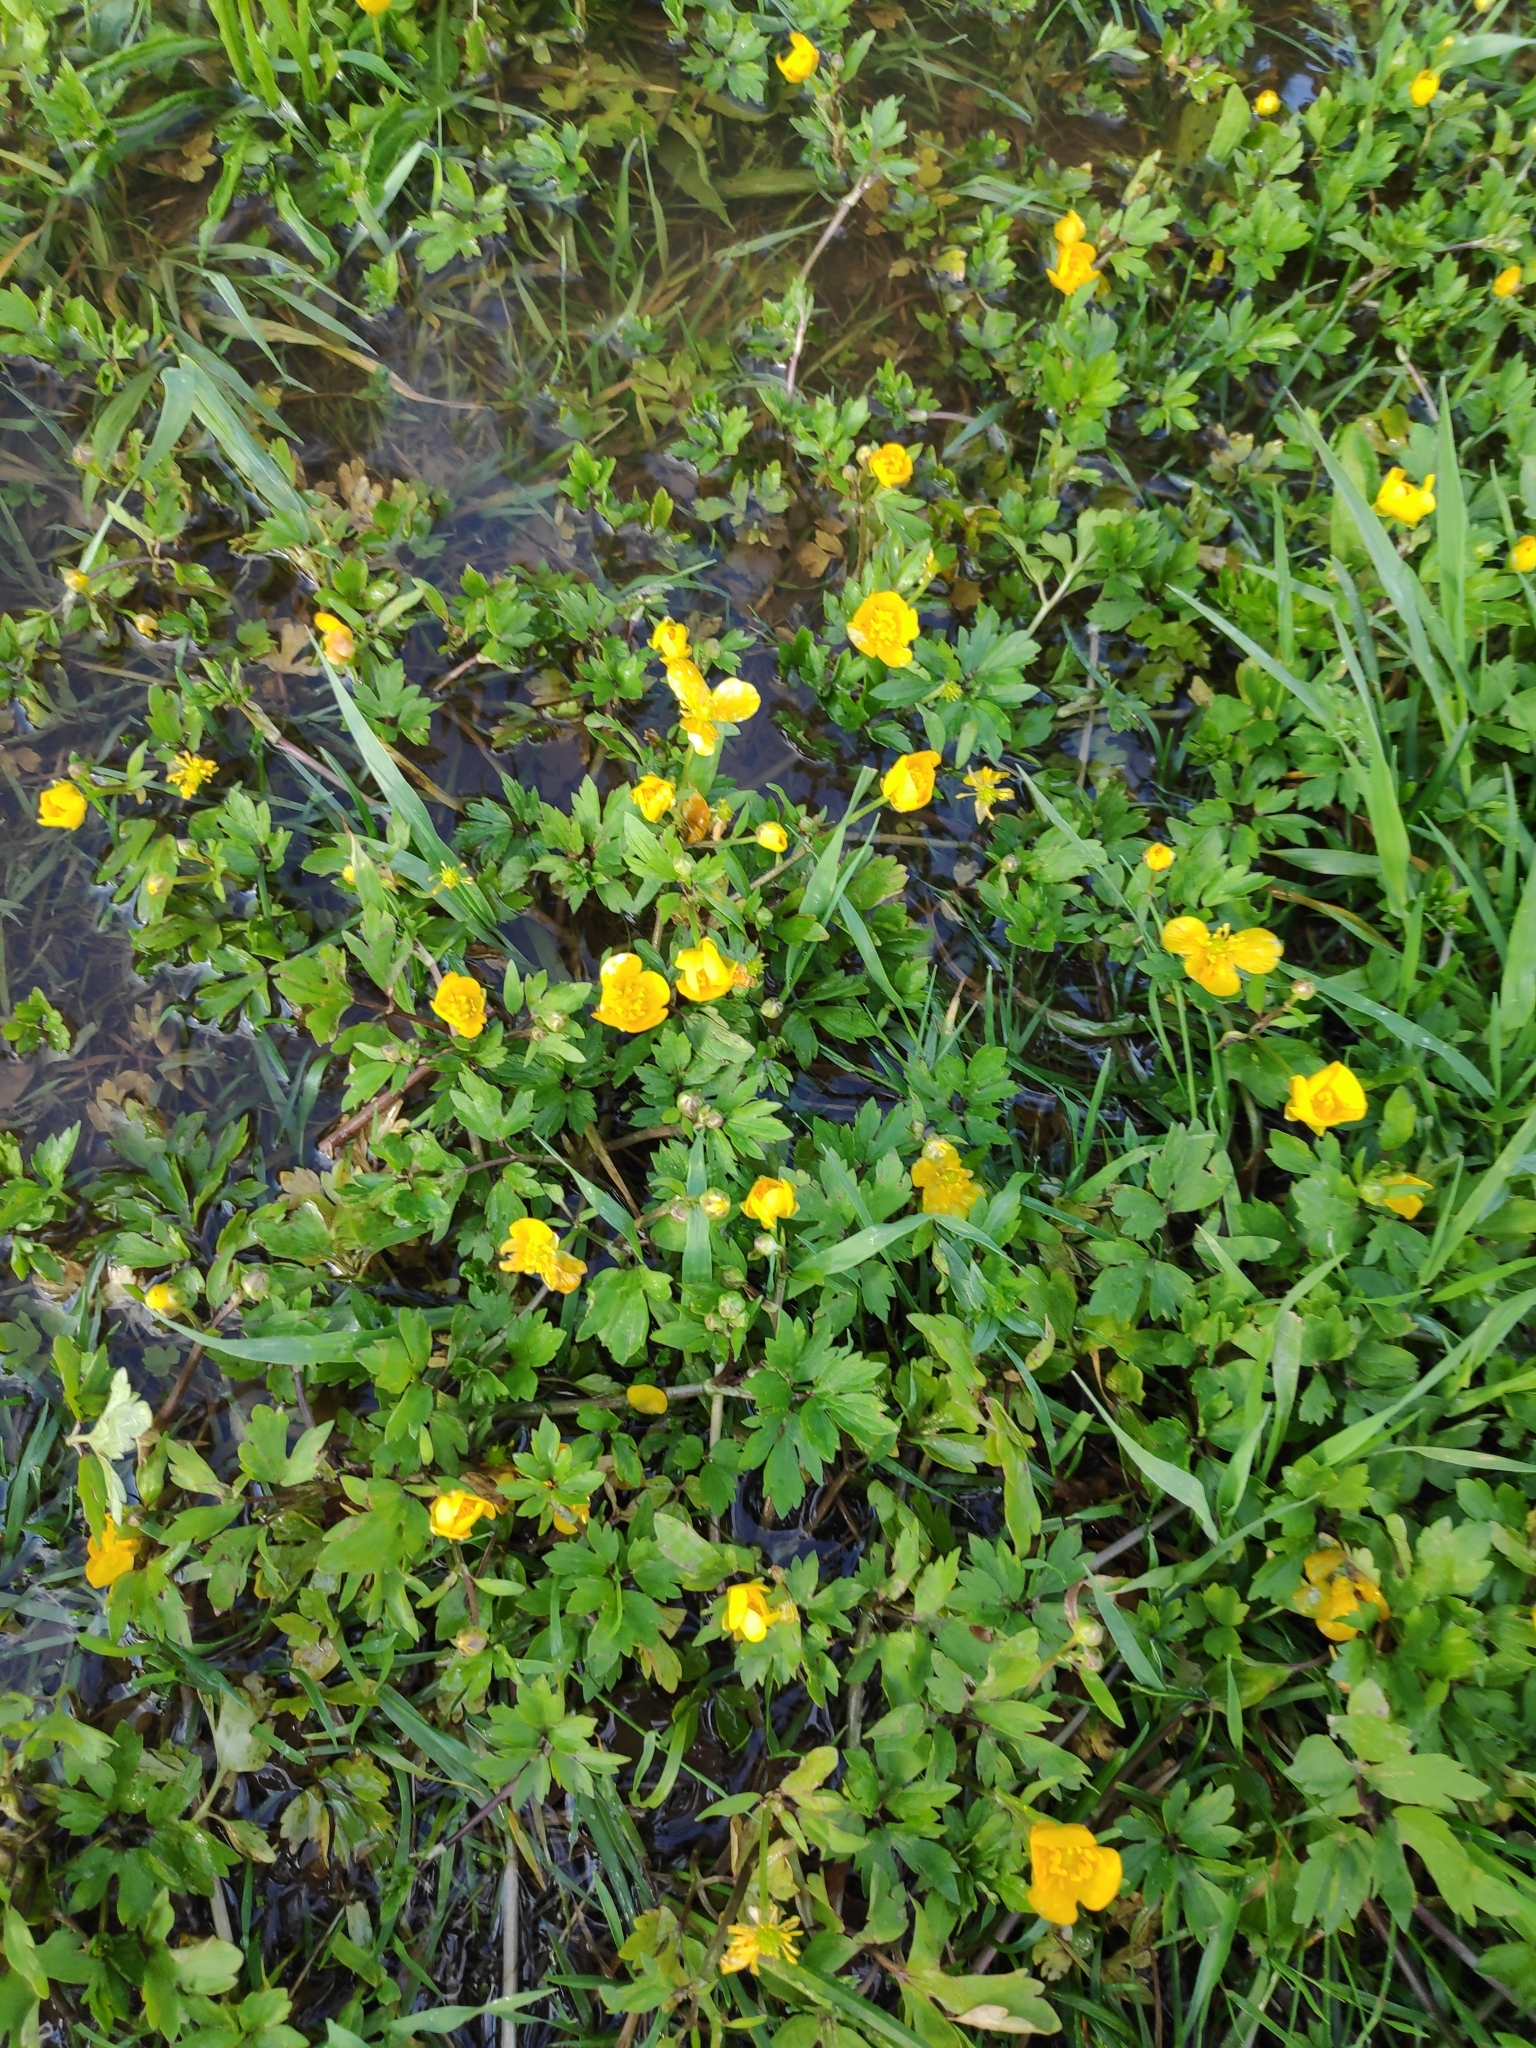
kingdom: Plantae
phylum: Tracheophyta
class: Magnoliopsida
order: Ranunculales
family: Ranunculaceae
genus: Ranunculus
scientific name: Ranunculus repens
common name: Creeping buttercup
